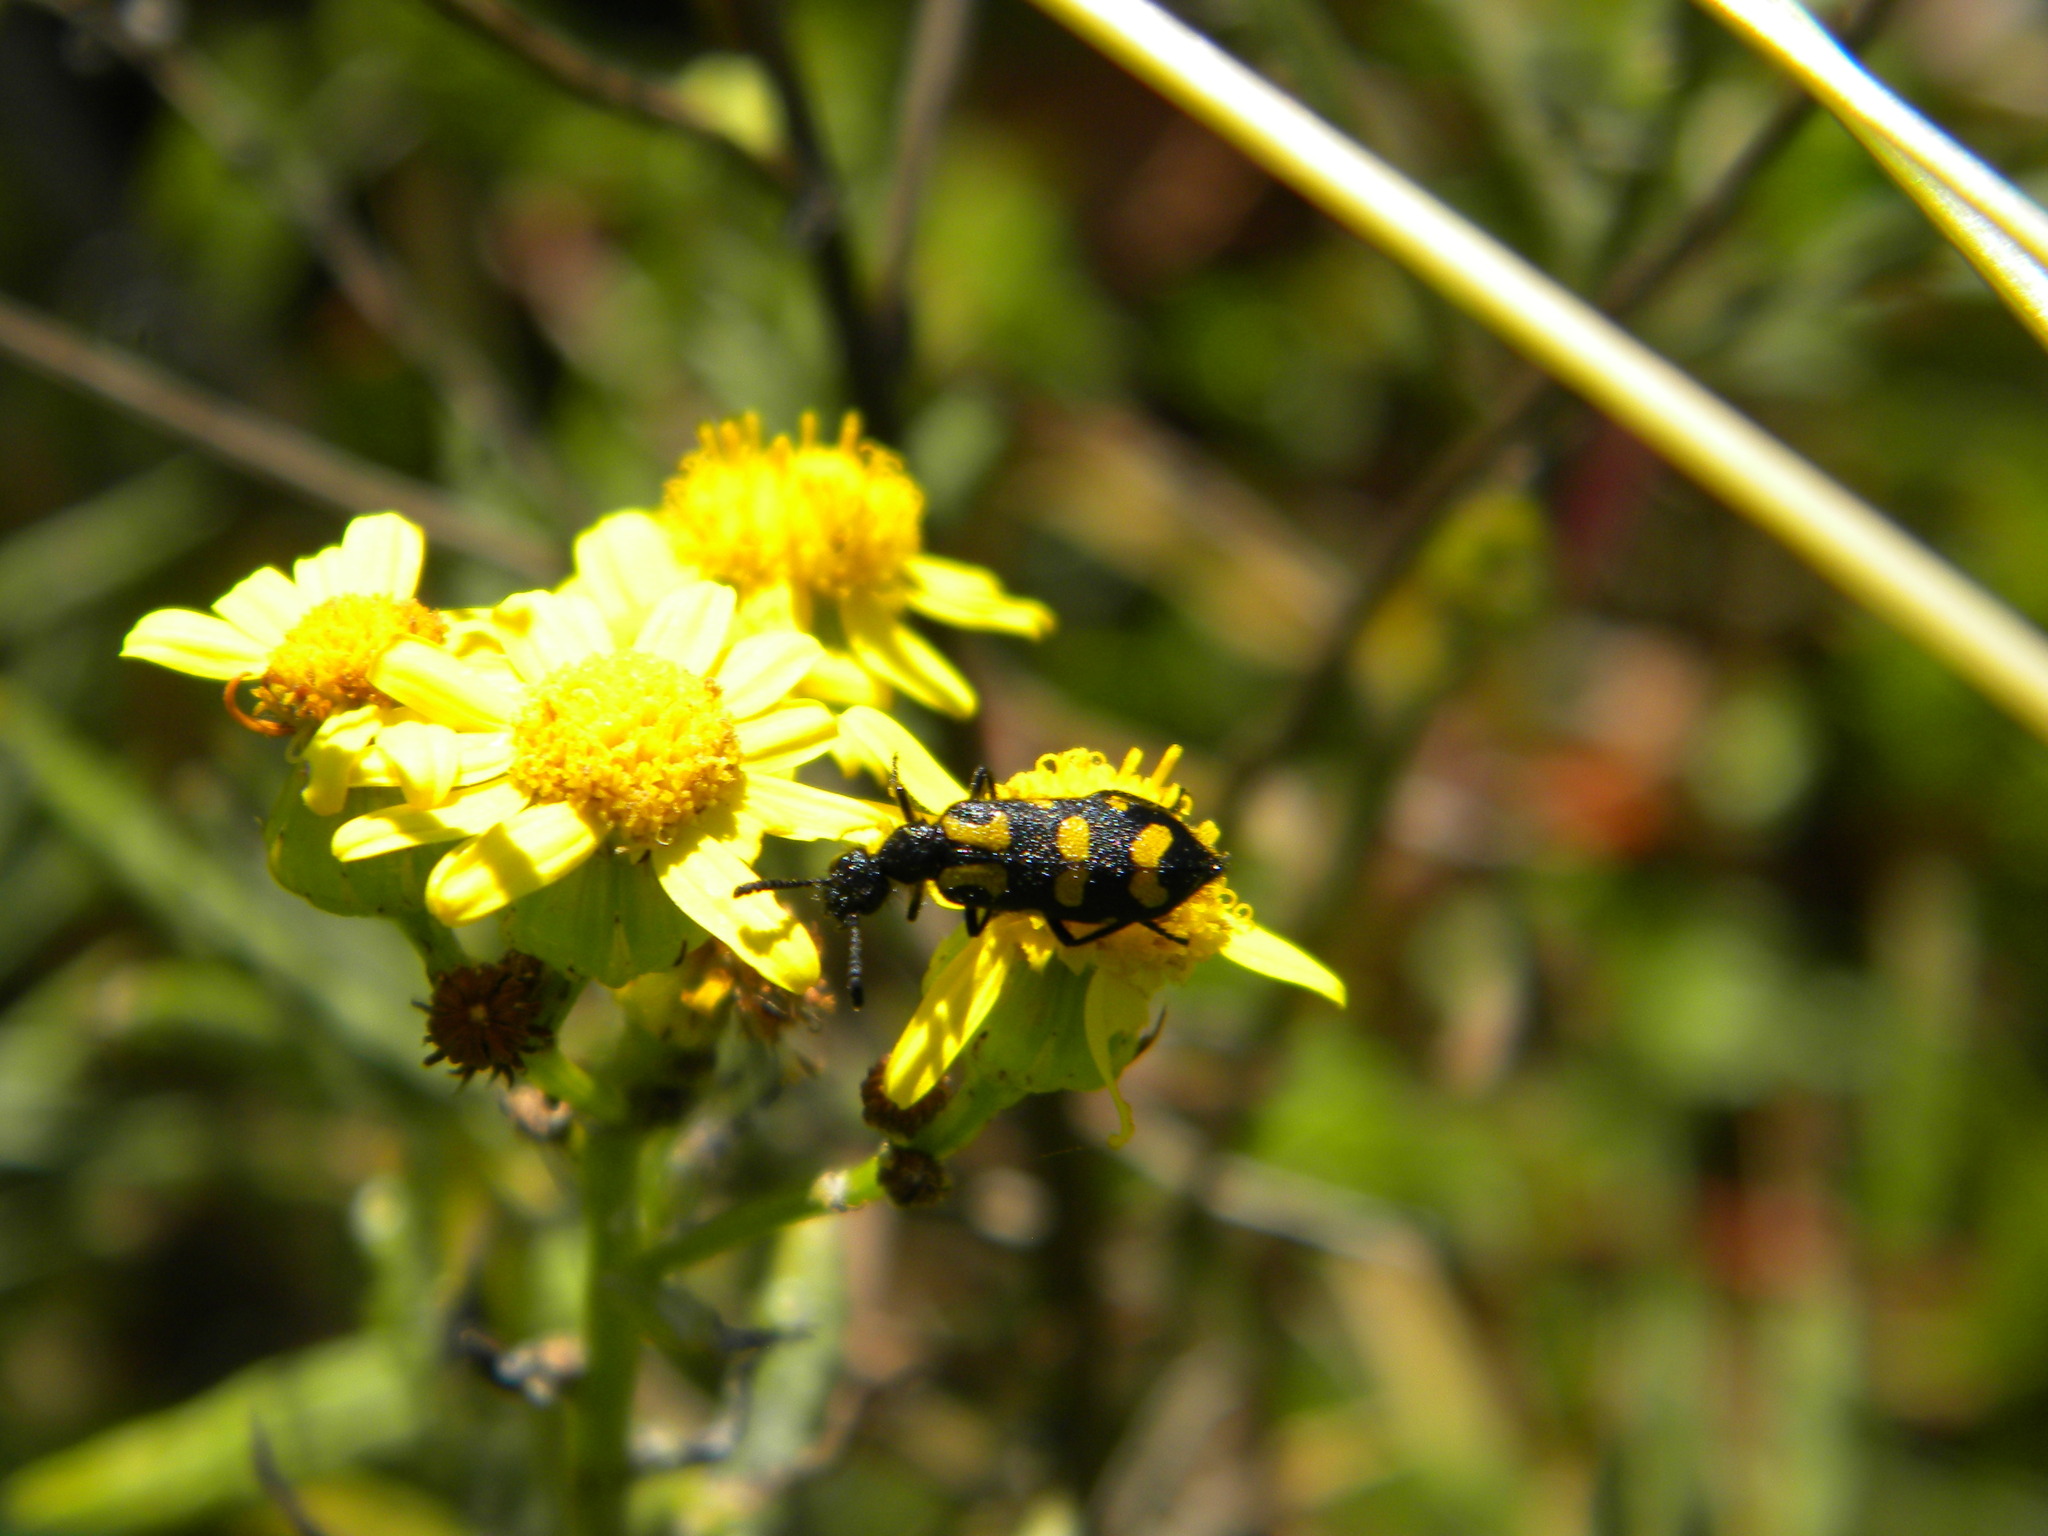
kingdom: Animalia
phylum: Arthropoda
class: Insecta
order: Coleoptera
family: Meloidae
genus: Ceroctis
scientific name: Ceroctis capensis
